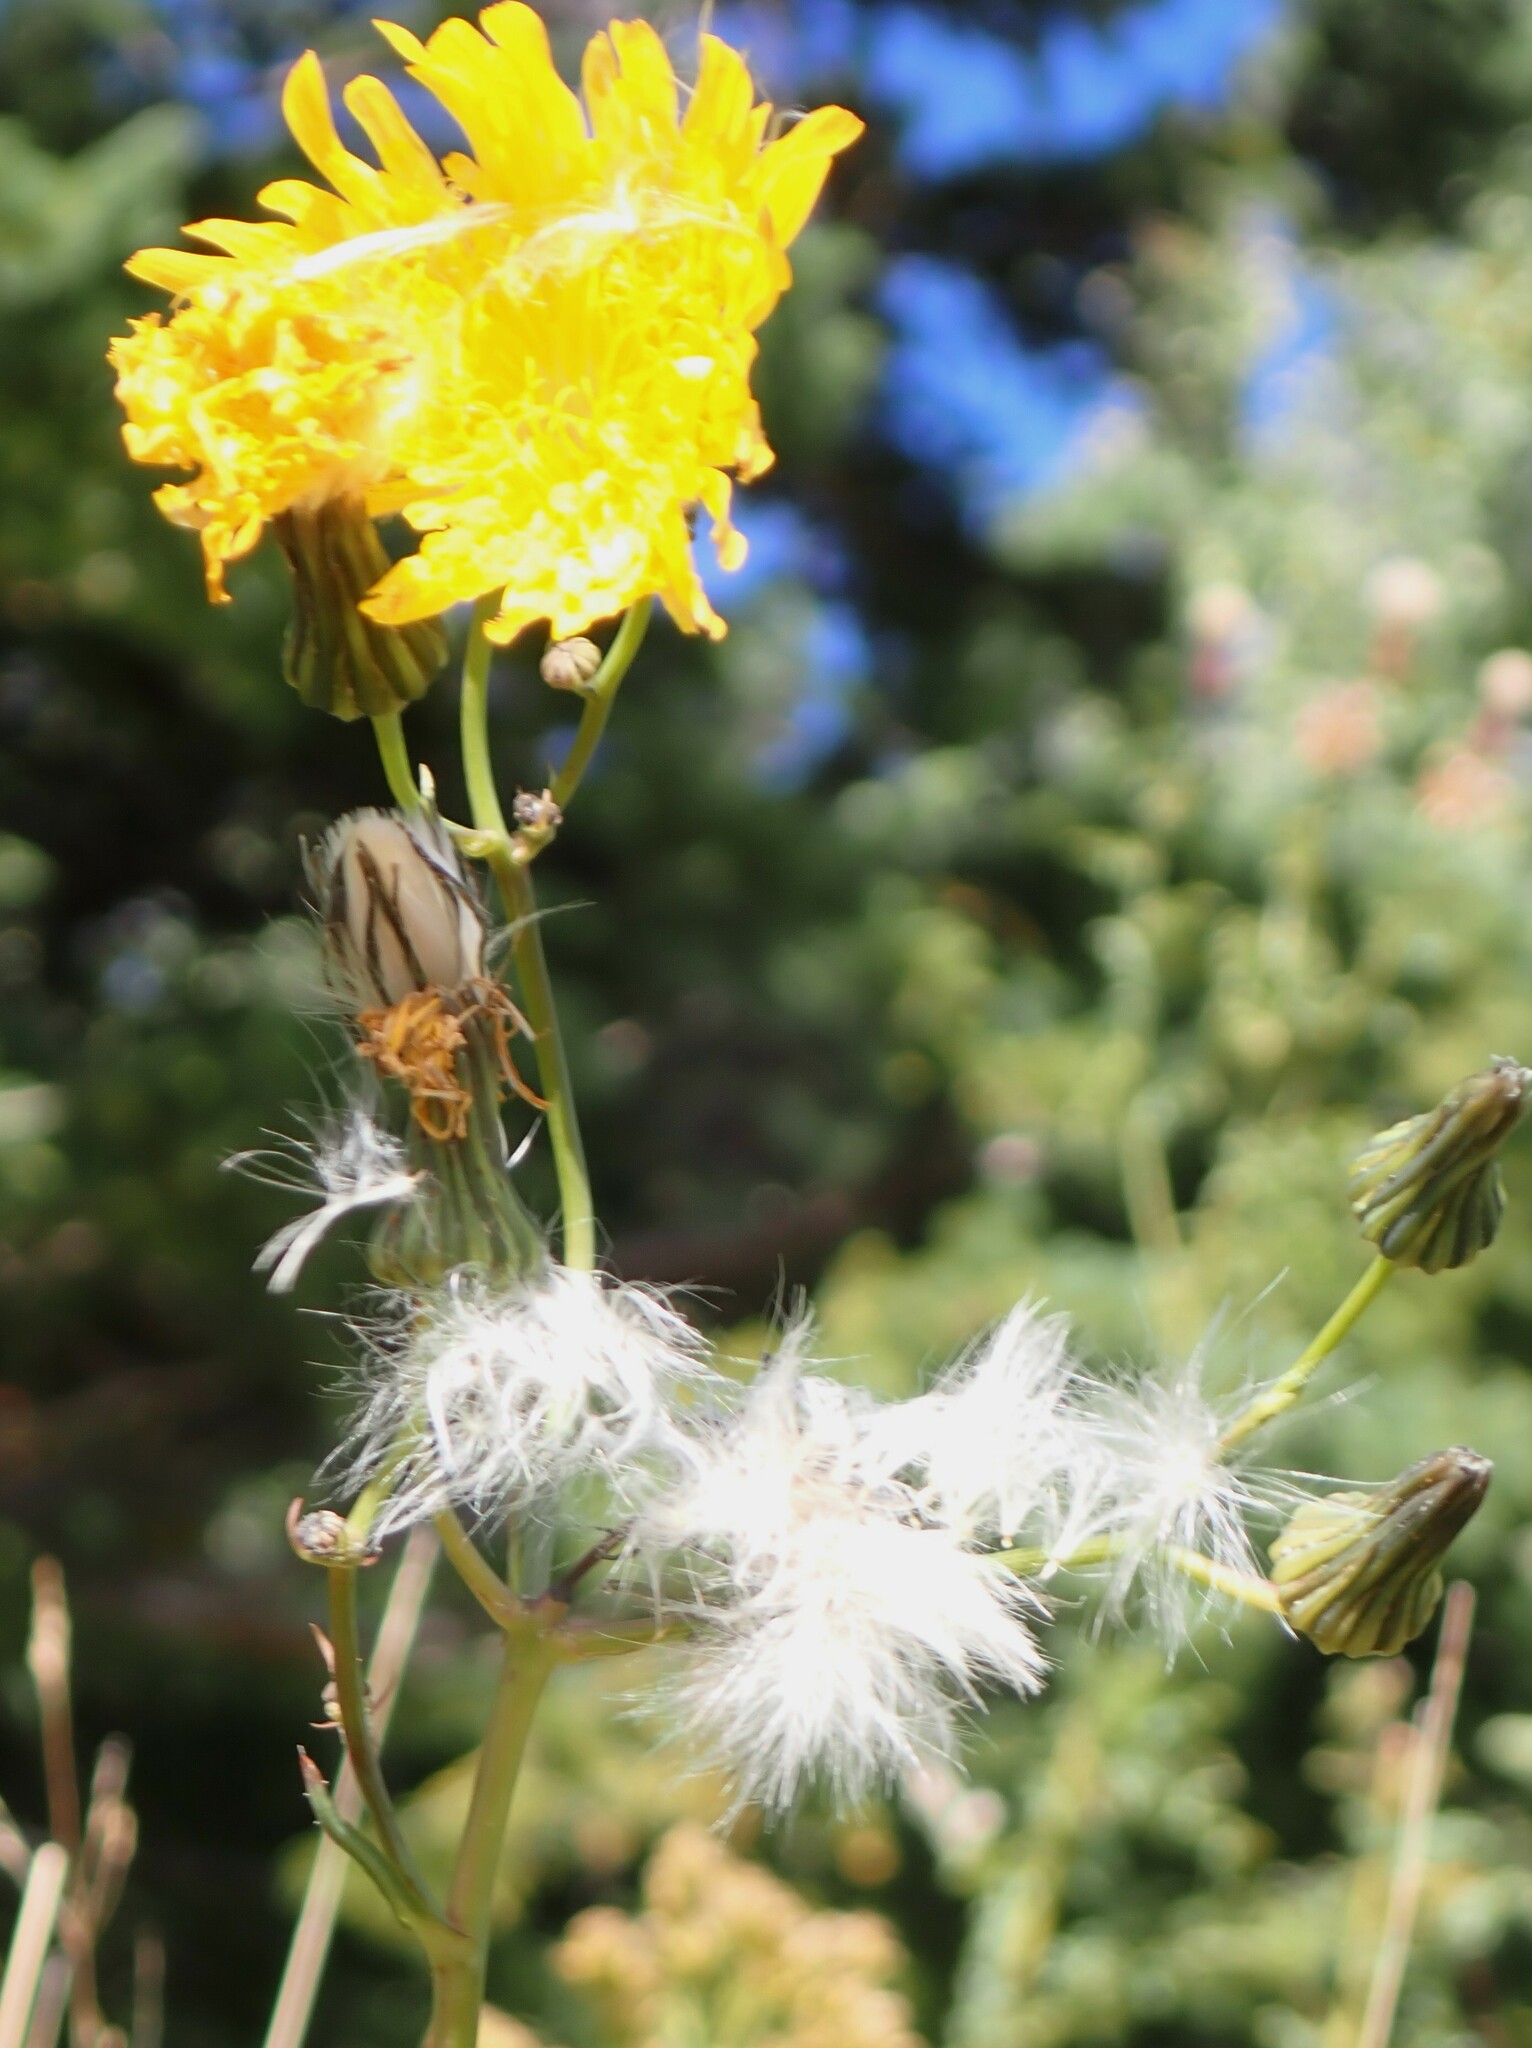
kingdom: Plantae
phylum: Tracheophyta
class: Magnoliopsida
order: Asterales
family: Asteraceae
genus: Sonchus
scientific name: Sonchus arvensis
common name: Perennial sow-thistle
